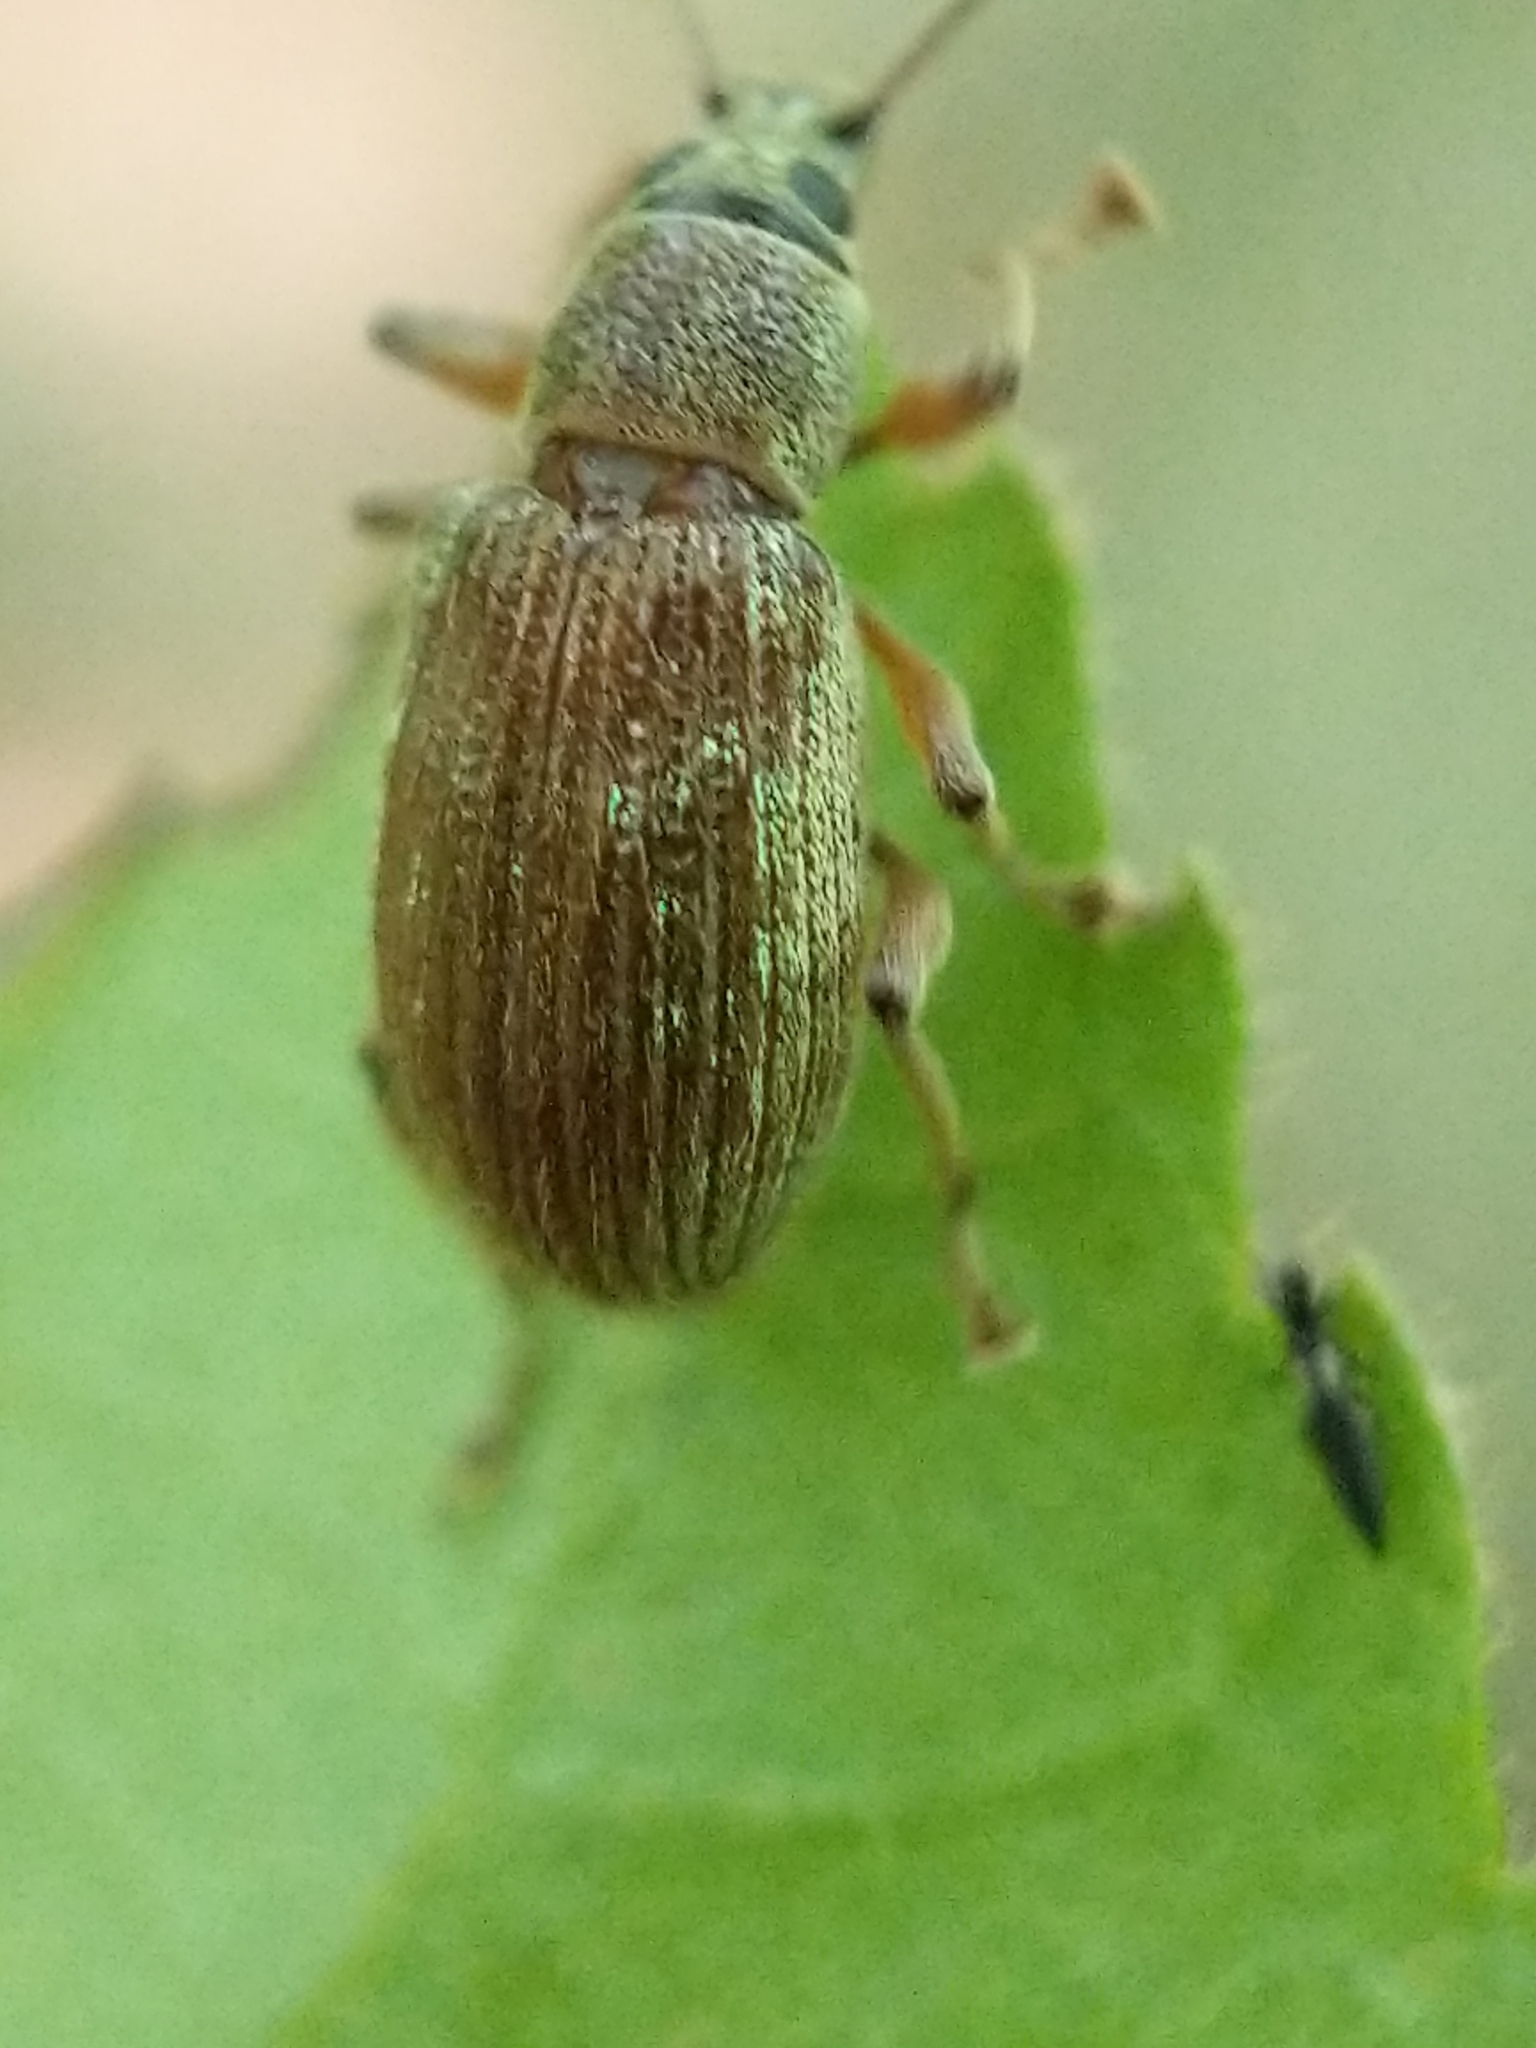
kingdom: Animalia
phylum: Arthropoda
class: Insecta
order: Coleoptera
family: Curculionidae
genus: Cyrtepistomus
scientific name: Cyrtepistomus castaneus
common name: Weevil
